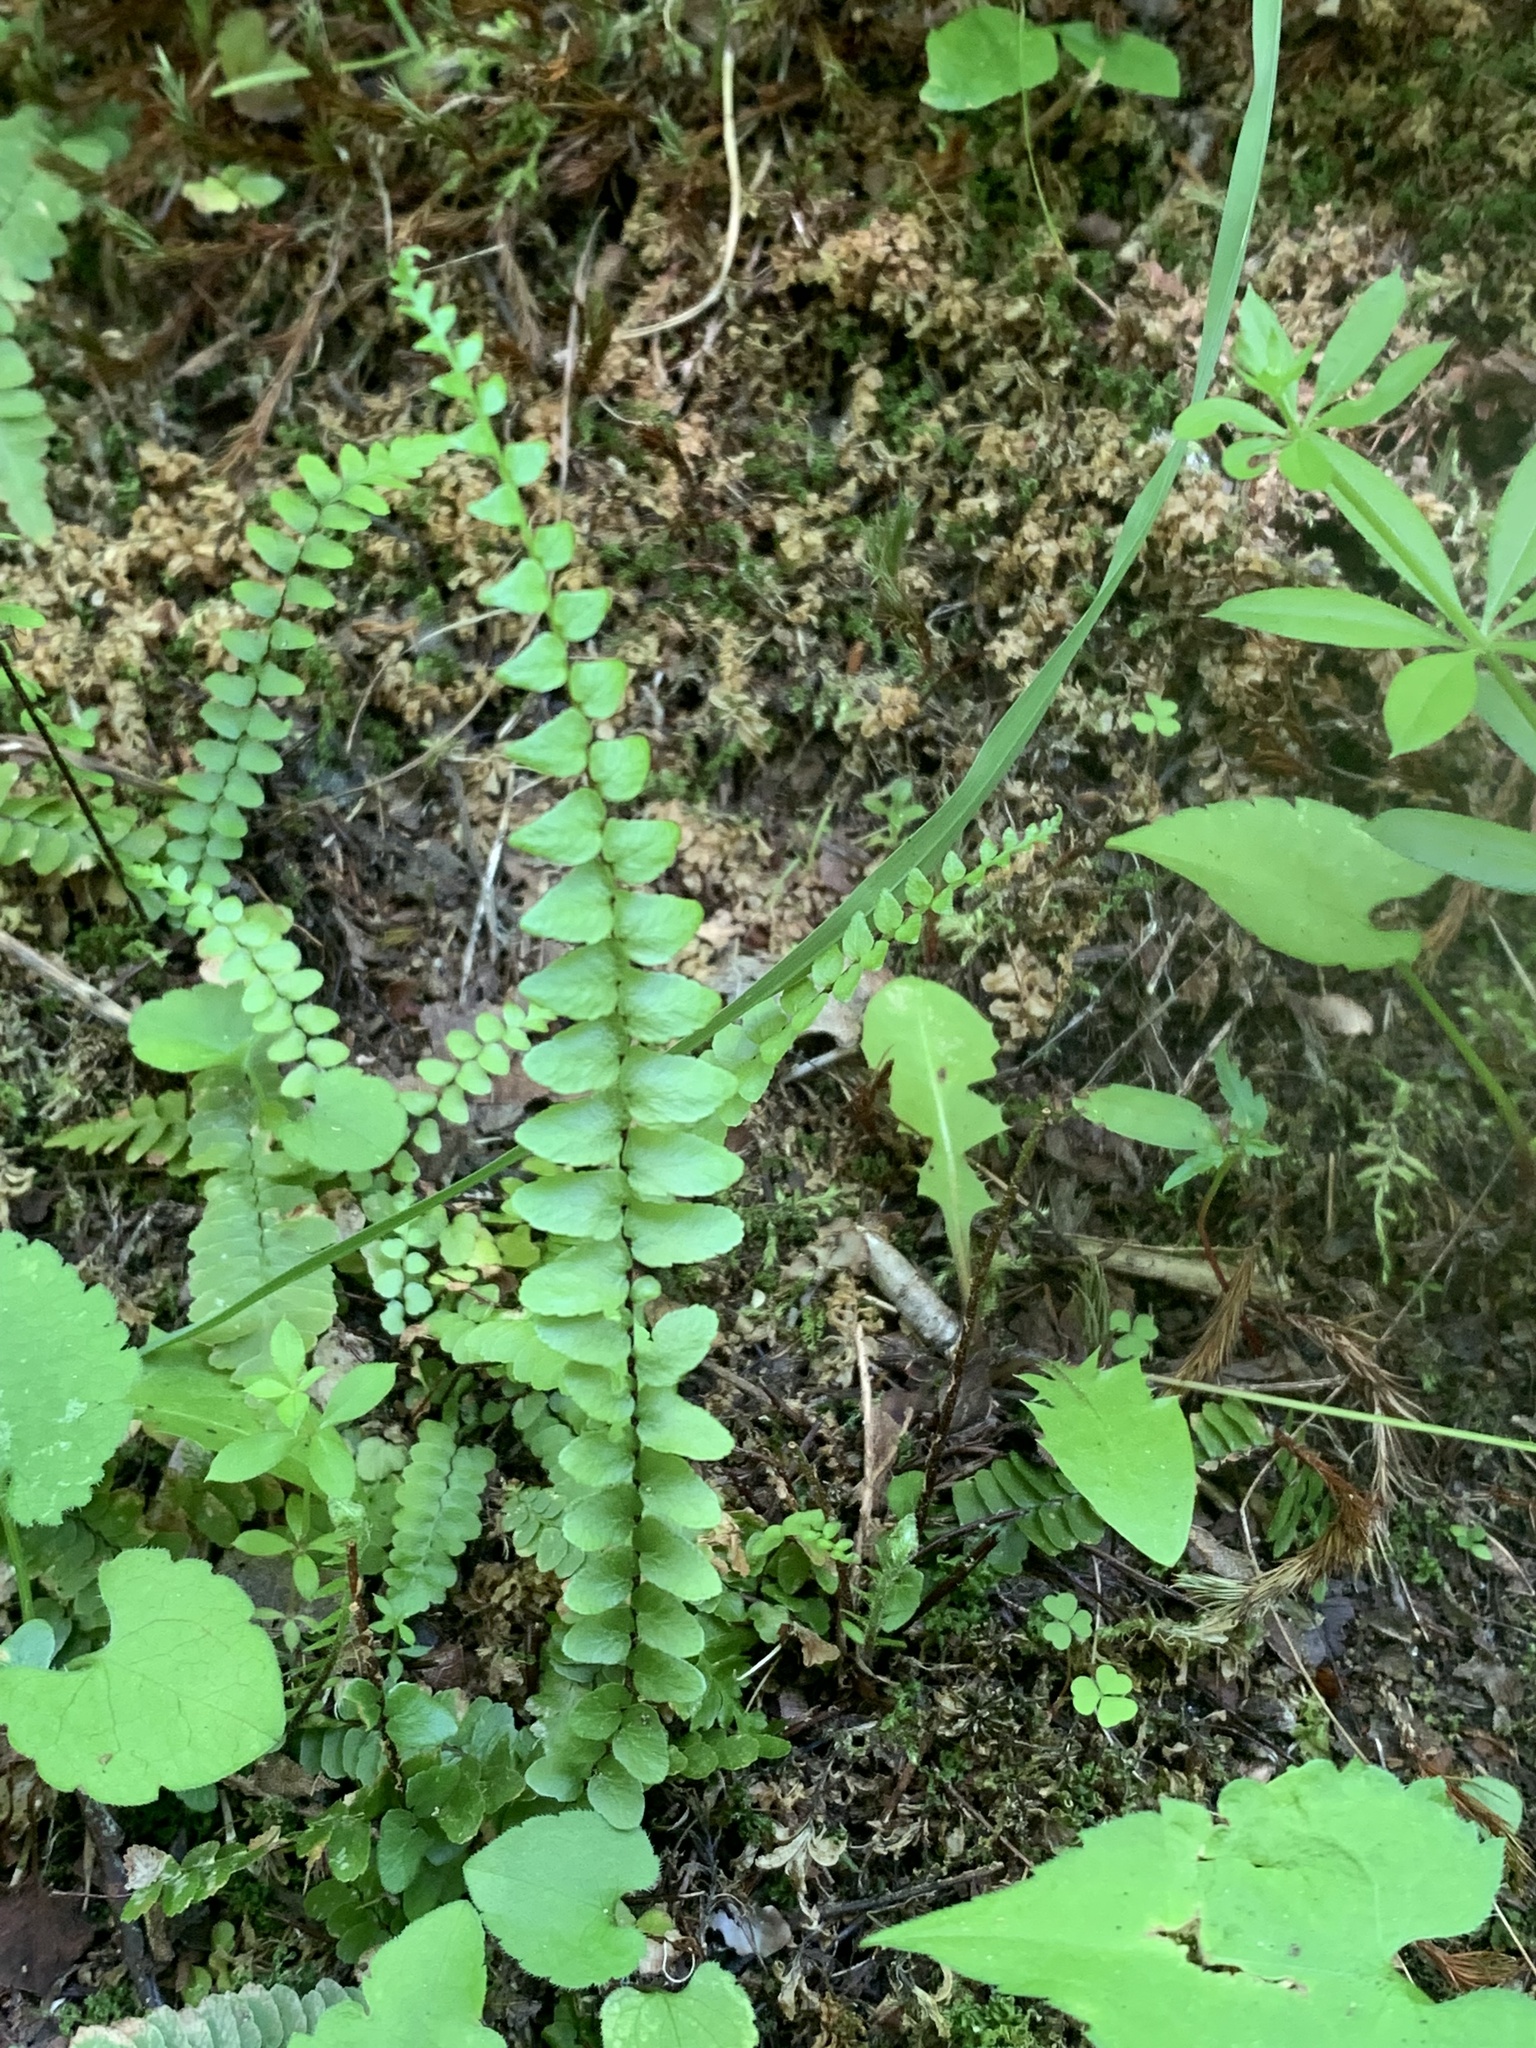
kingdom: Plantae
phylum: Tracheophyta
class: Polypodiopsida
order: Polypodiales
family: Aspleniaceae
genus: Asplenium
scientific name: Asplenium platyneuron
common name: Ebony spleenwort
